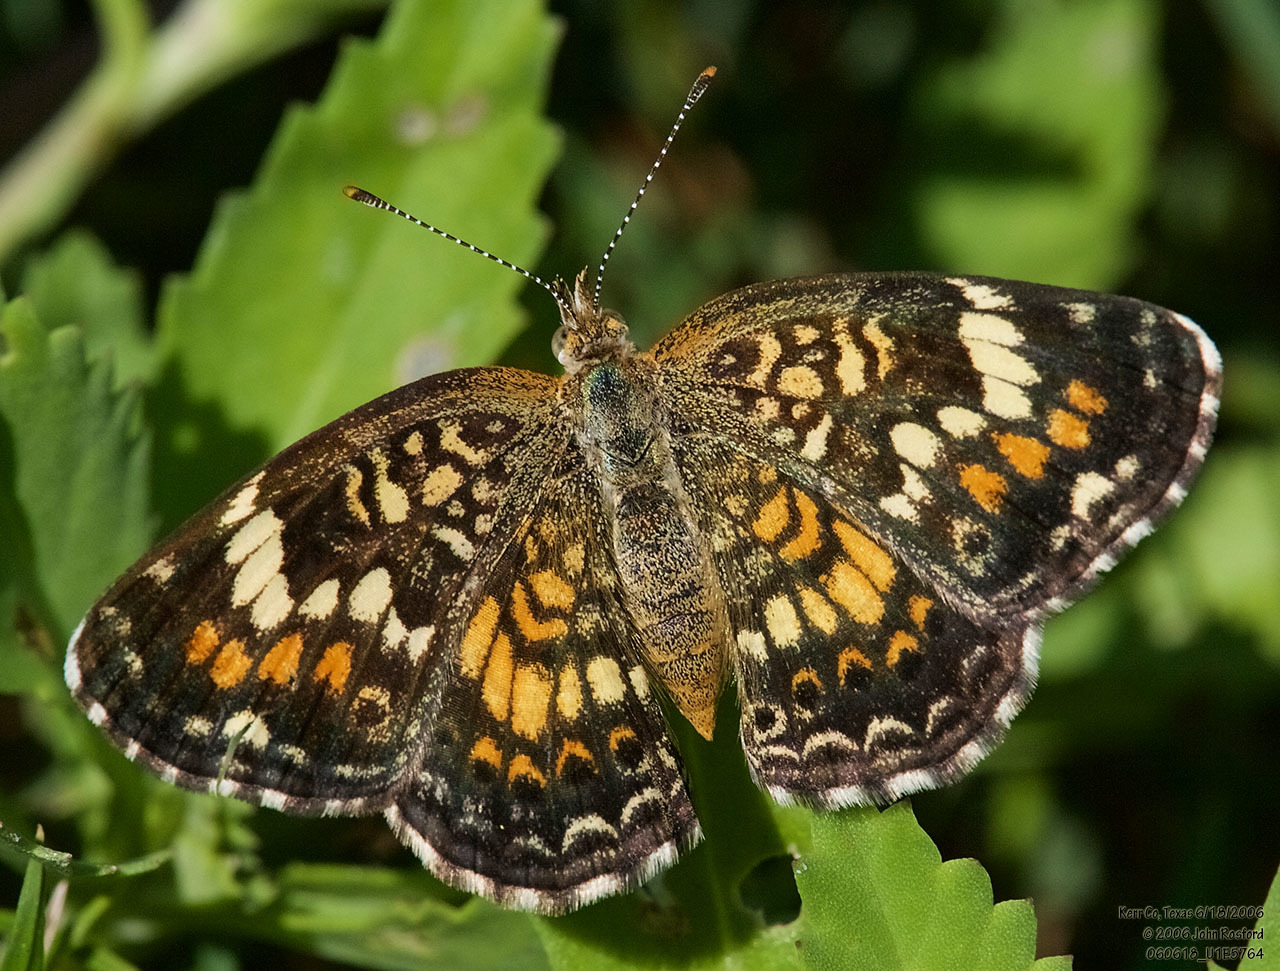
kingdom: Animalia
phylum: Arthropoda
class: Insecta
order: Lepidoptera
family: Nymphalidae
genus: Phyciodes
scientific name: Phyciodes phaon
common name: Phaon crescent
